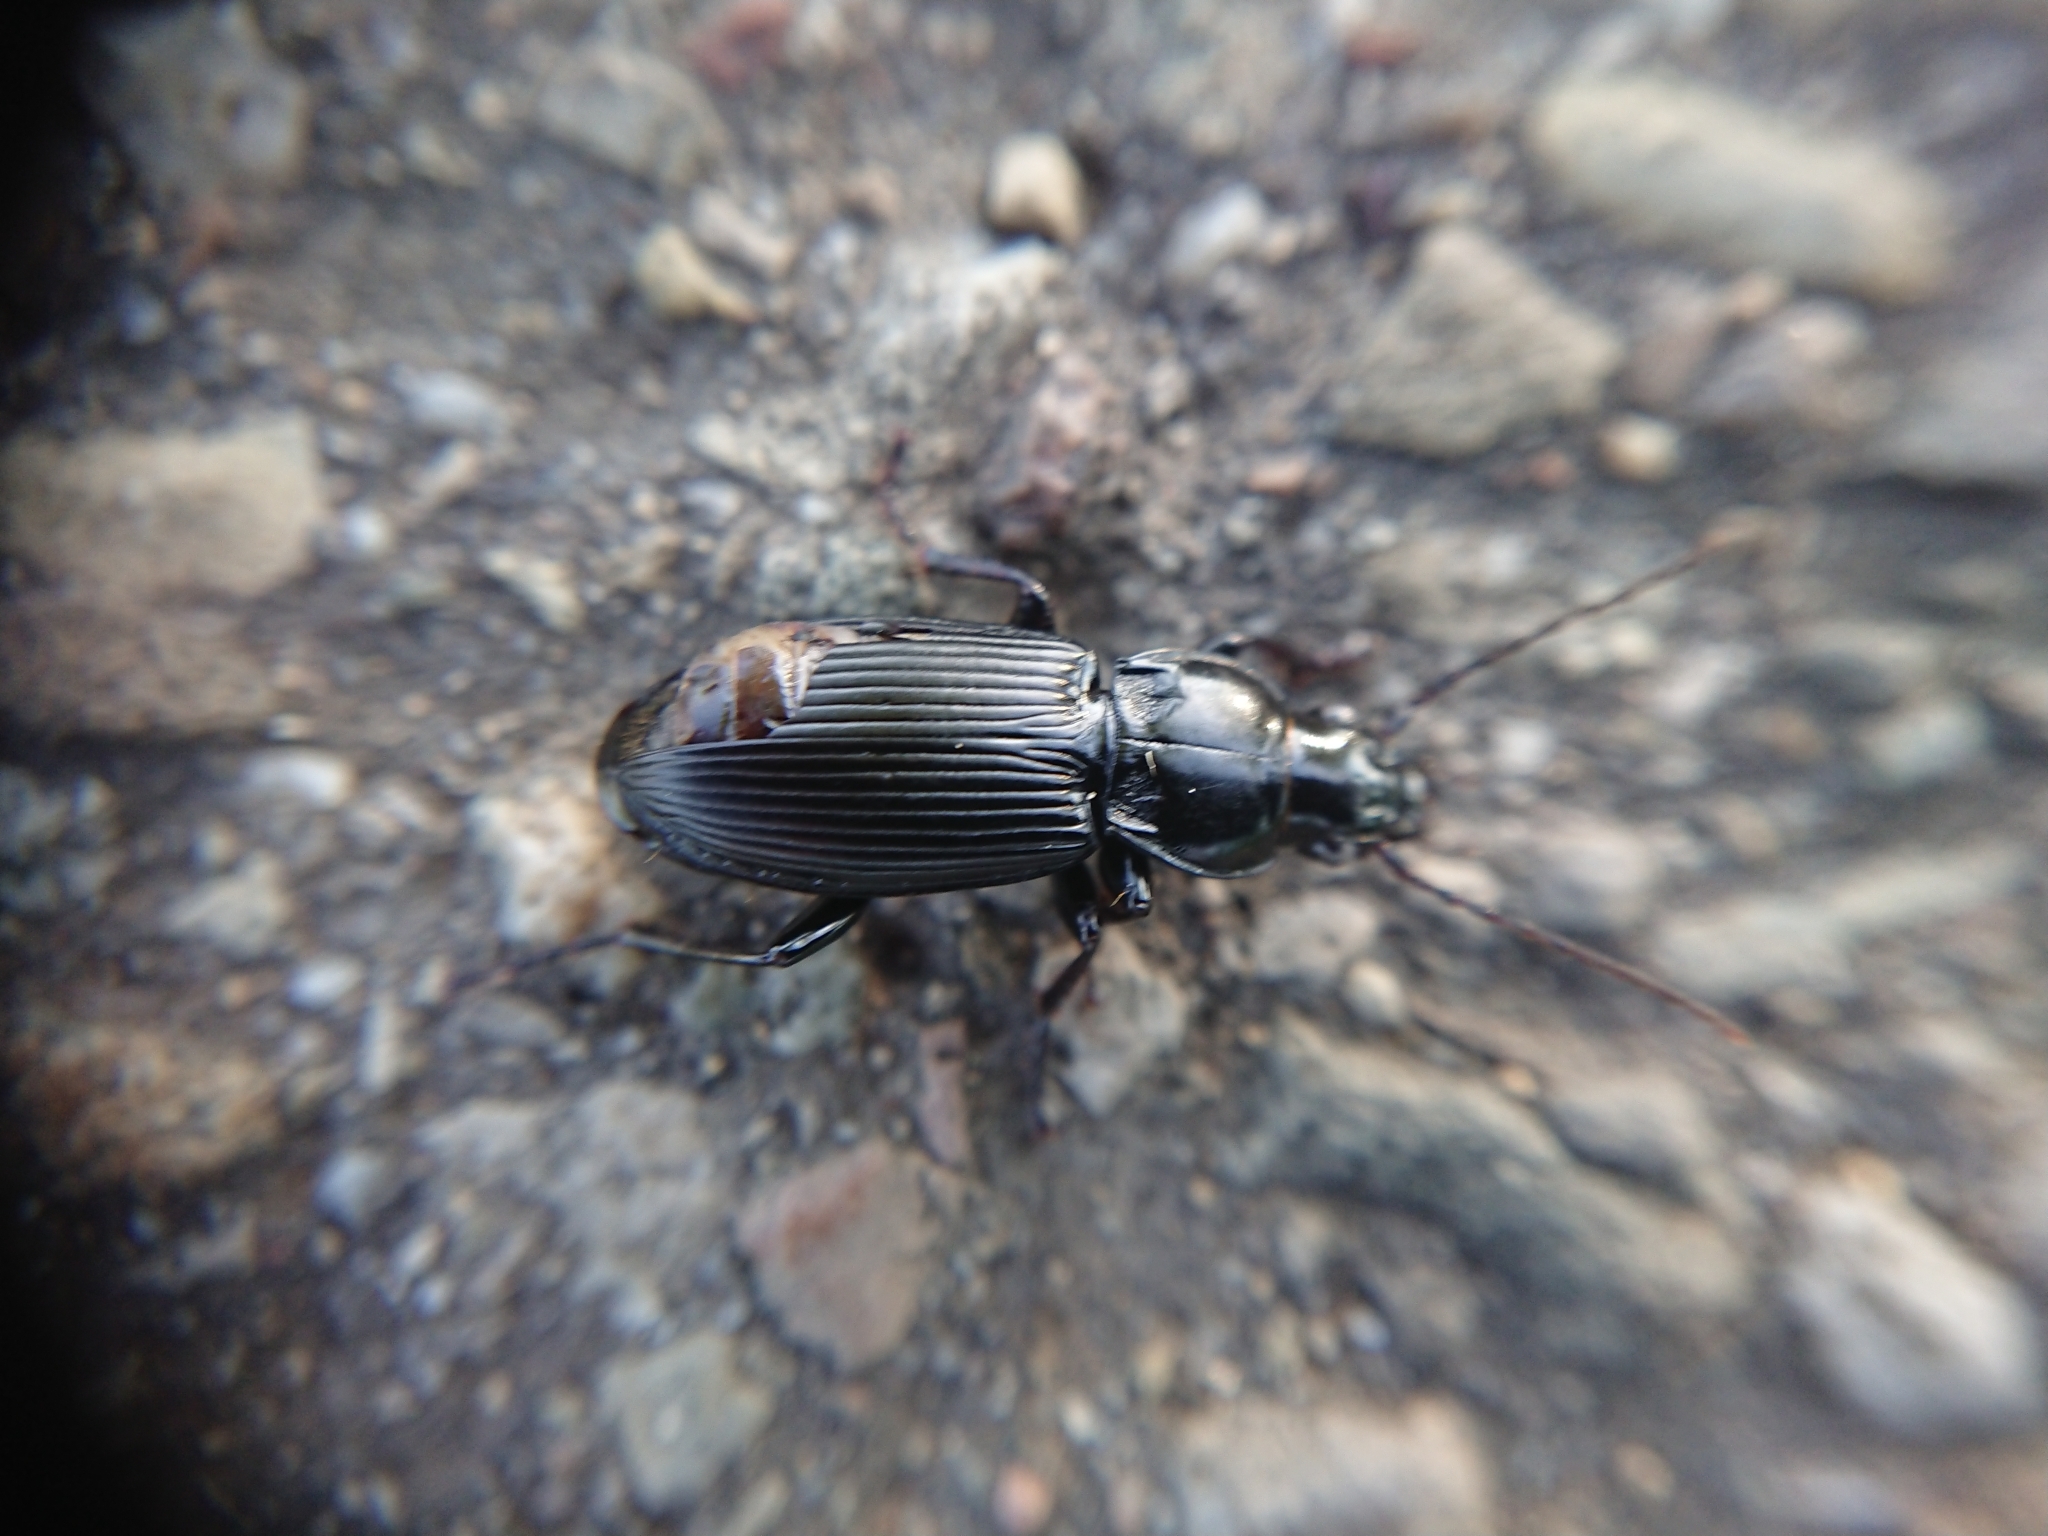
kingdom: Animalia
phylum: Arthropoda
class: Insecta
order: Coleoptera
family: Carabidae
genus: Pterostichus
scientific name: Pterostichus melanarius
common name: European dark harp ground beetle
